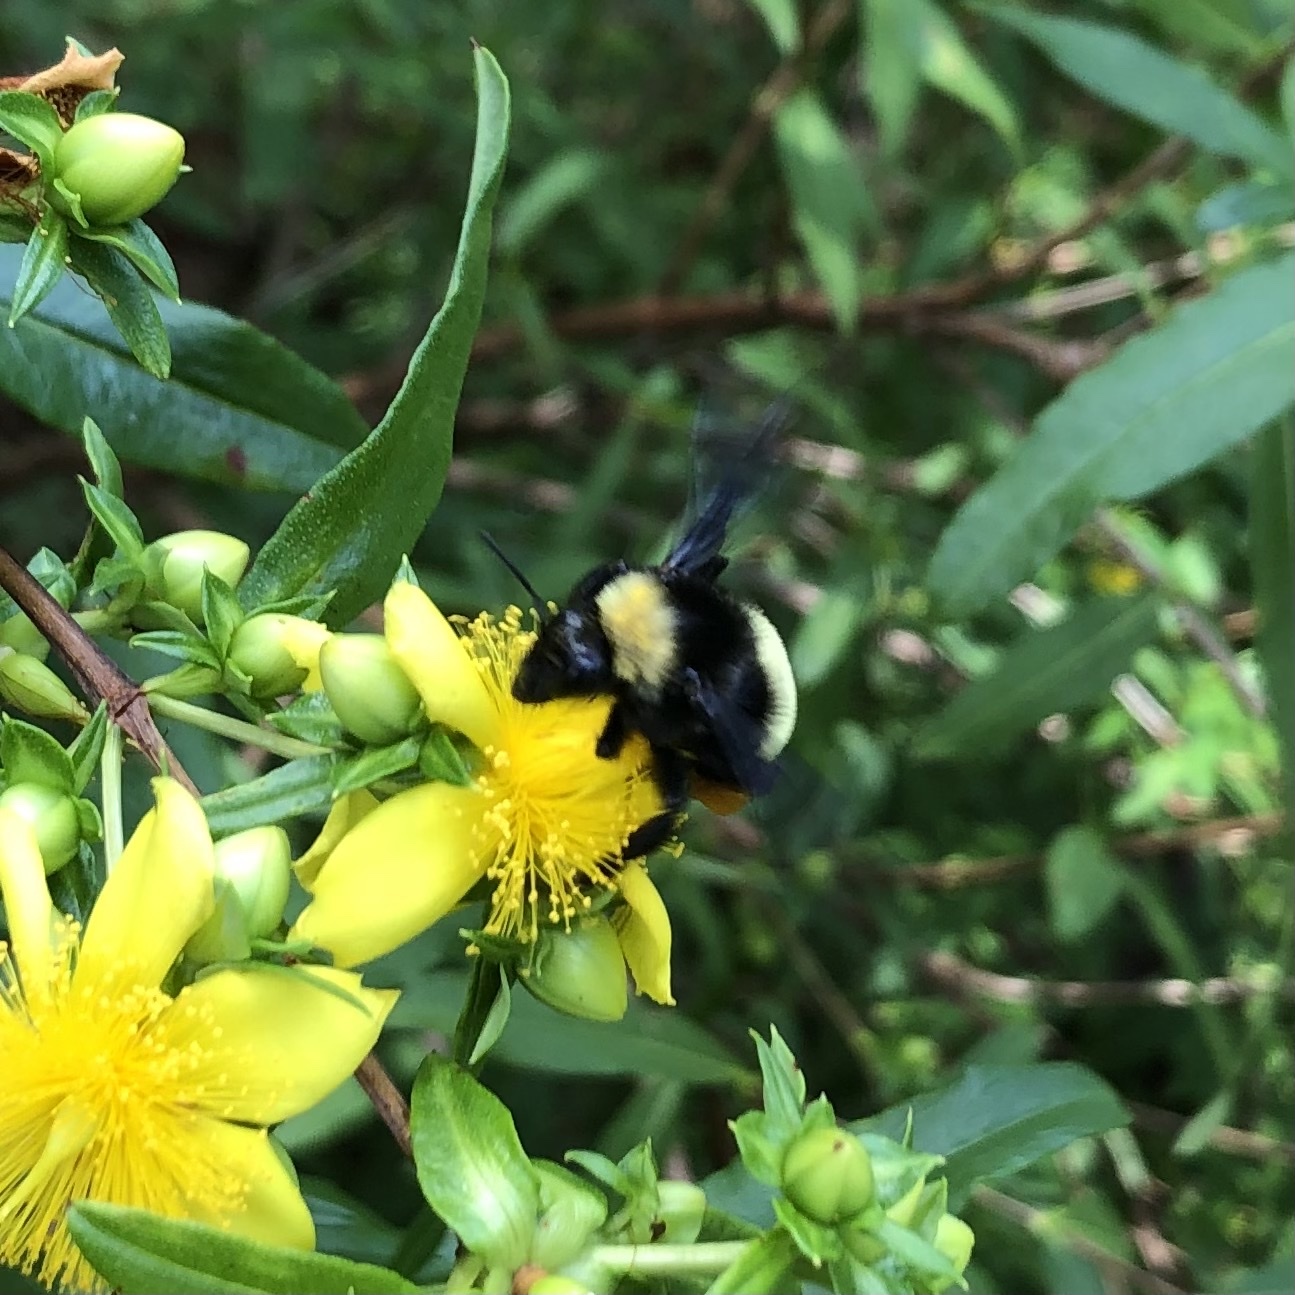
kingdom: Animalia
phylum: Arthropoda
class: Insecta
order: Hymenoptera
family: Apidae
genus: Bombus
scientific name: Bombus pensylvanicus
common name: Bumble bee
